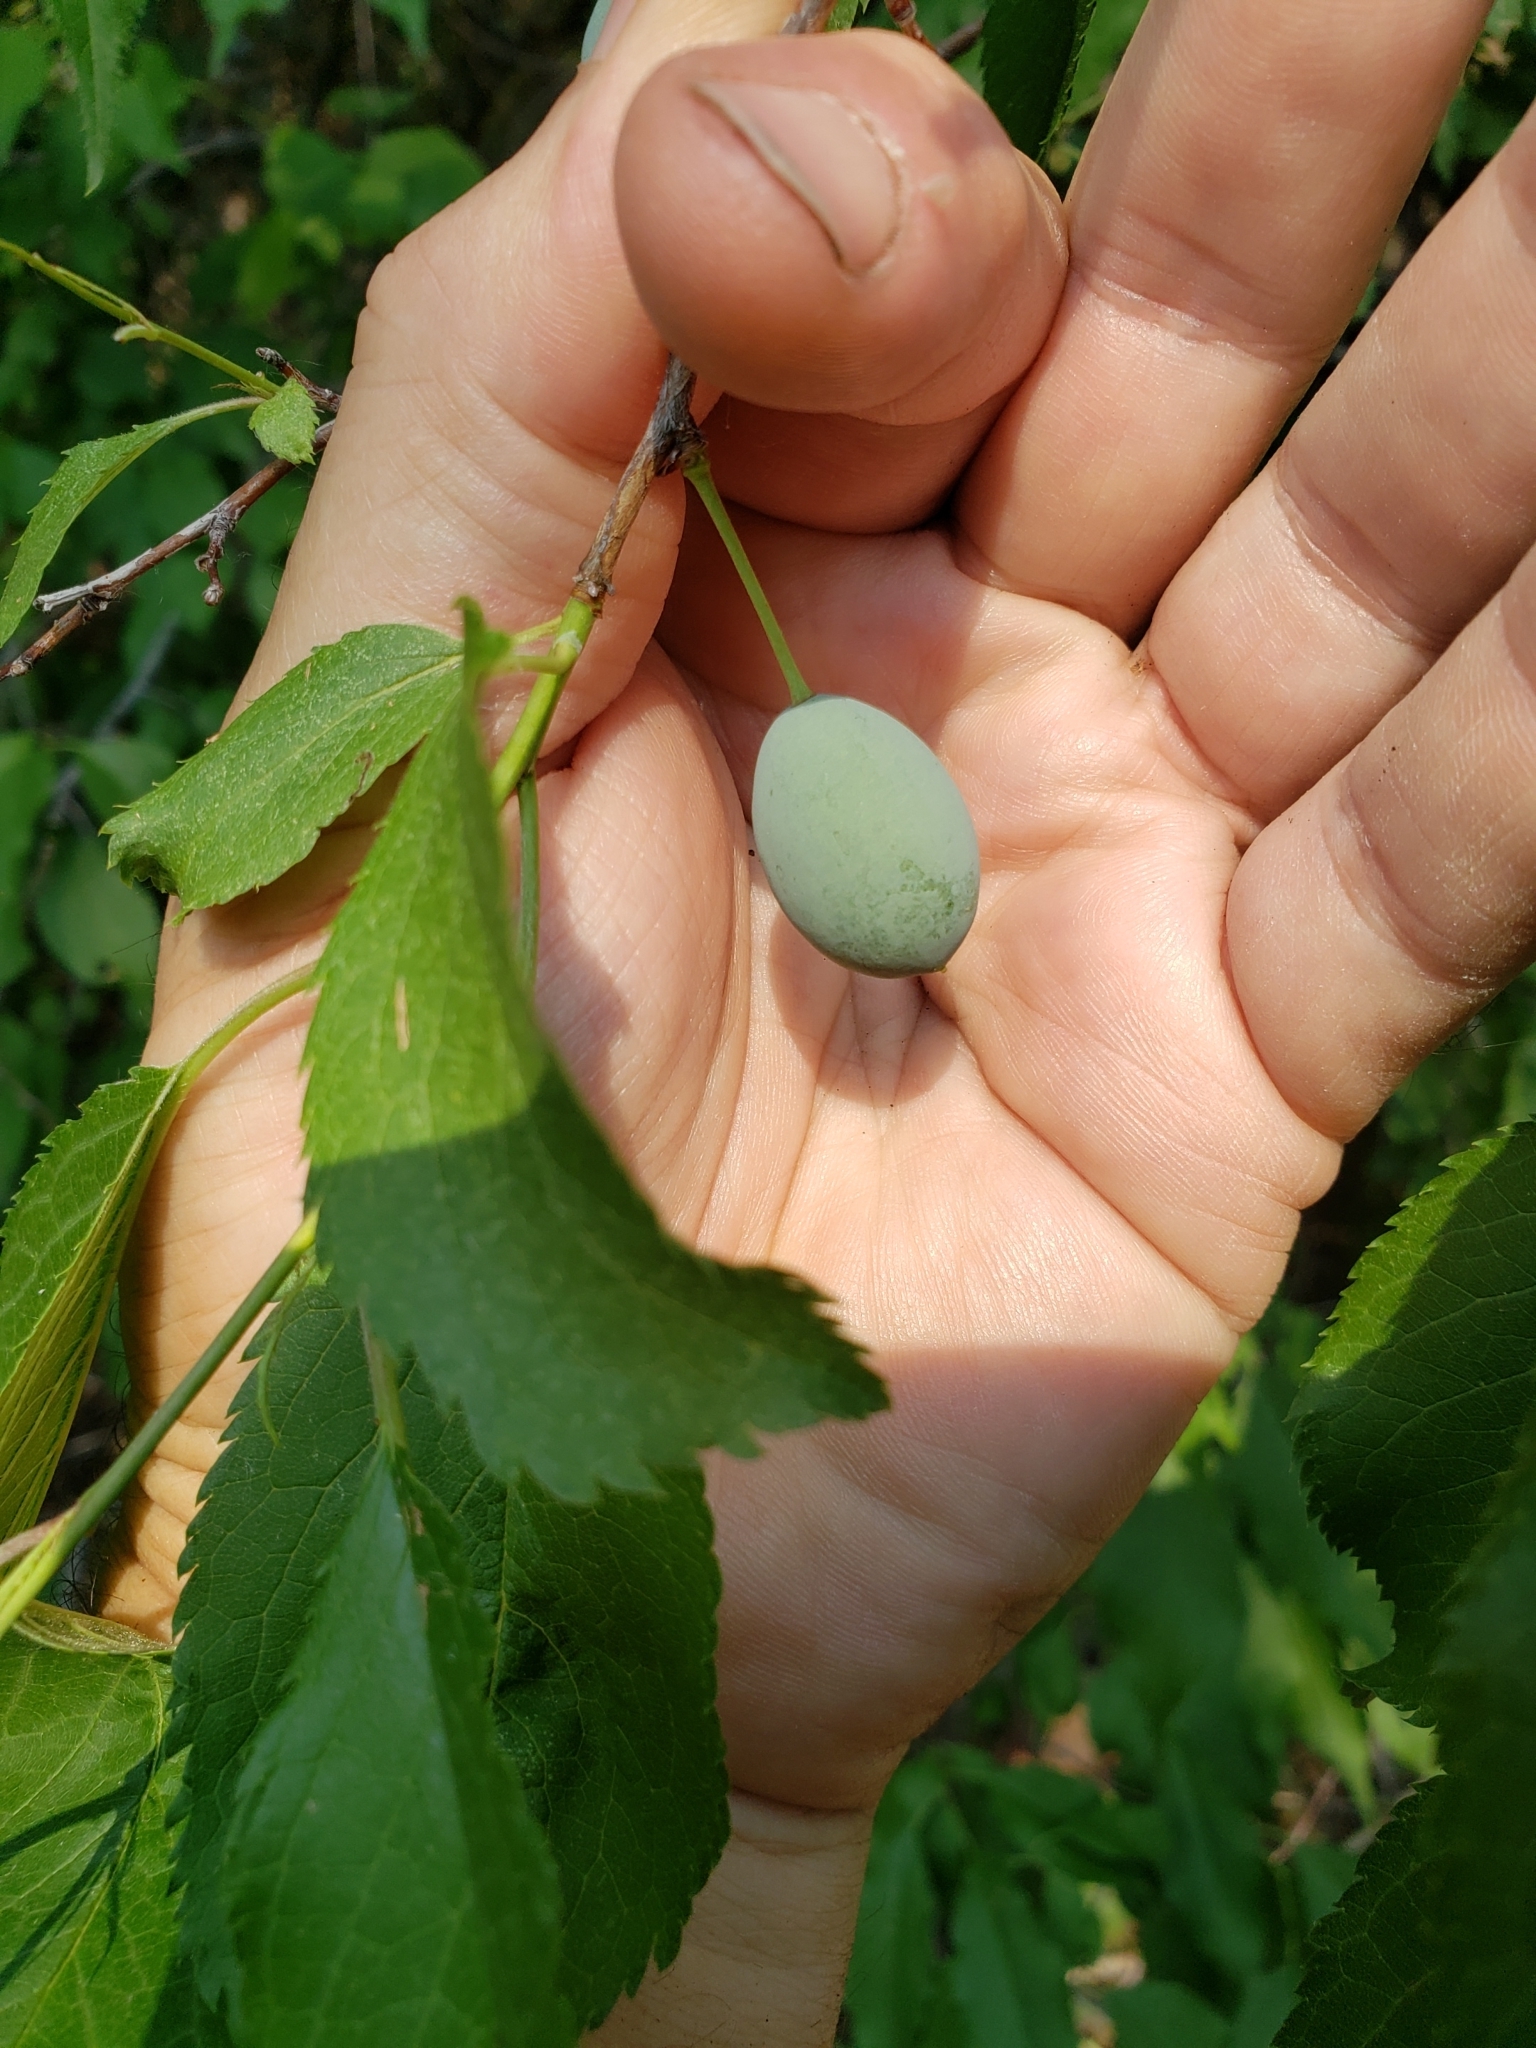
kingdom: Plantae
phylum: Tracheophyta
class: Magnoliopsida
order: Rosales
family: Rosaceae
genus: Prunus
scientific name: Prunus americana
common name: American plum
